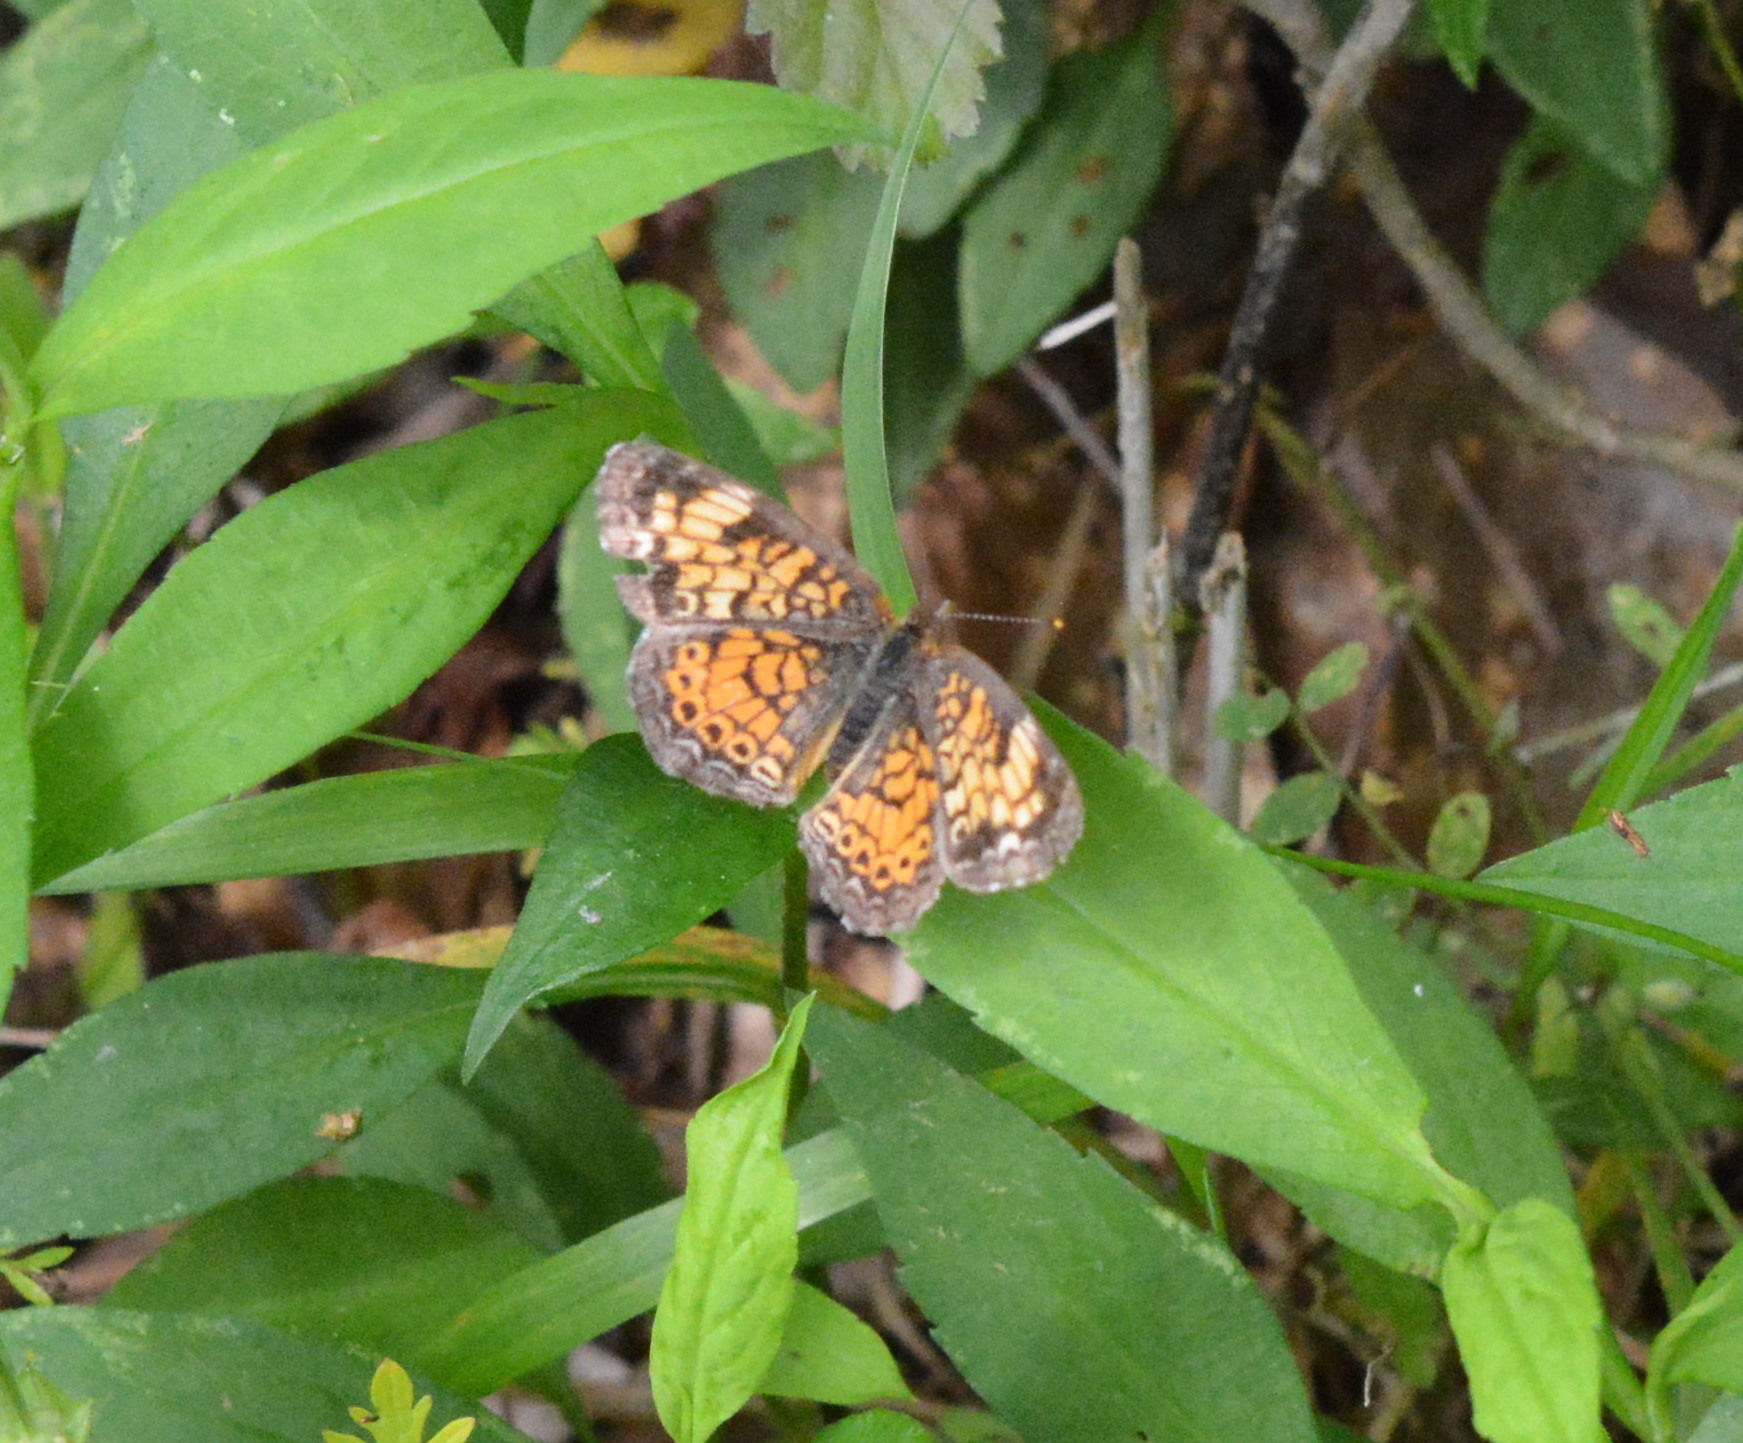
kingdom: Animalia
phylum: Arthropoda
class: Insecta
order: Lepidoptera
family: Nymphalidae
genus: Phyciodes
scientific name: Phyciodes tharos
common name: Pearl crescent
